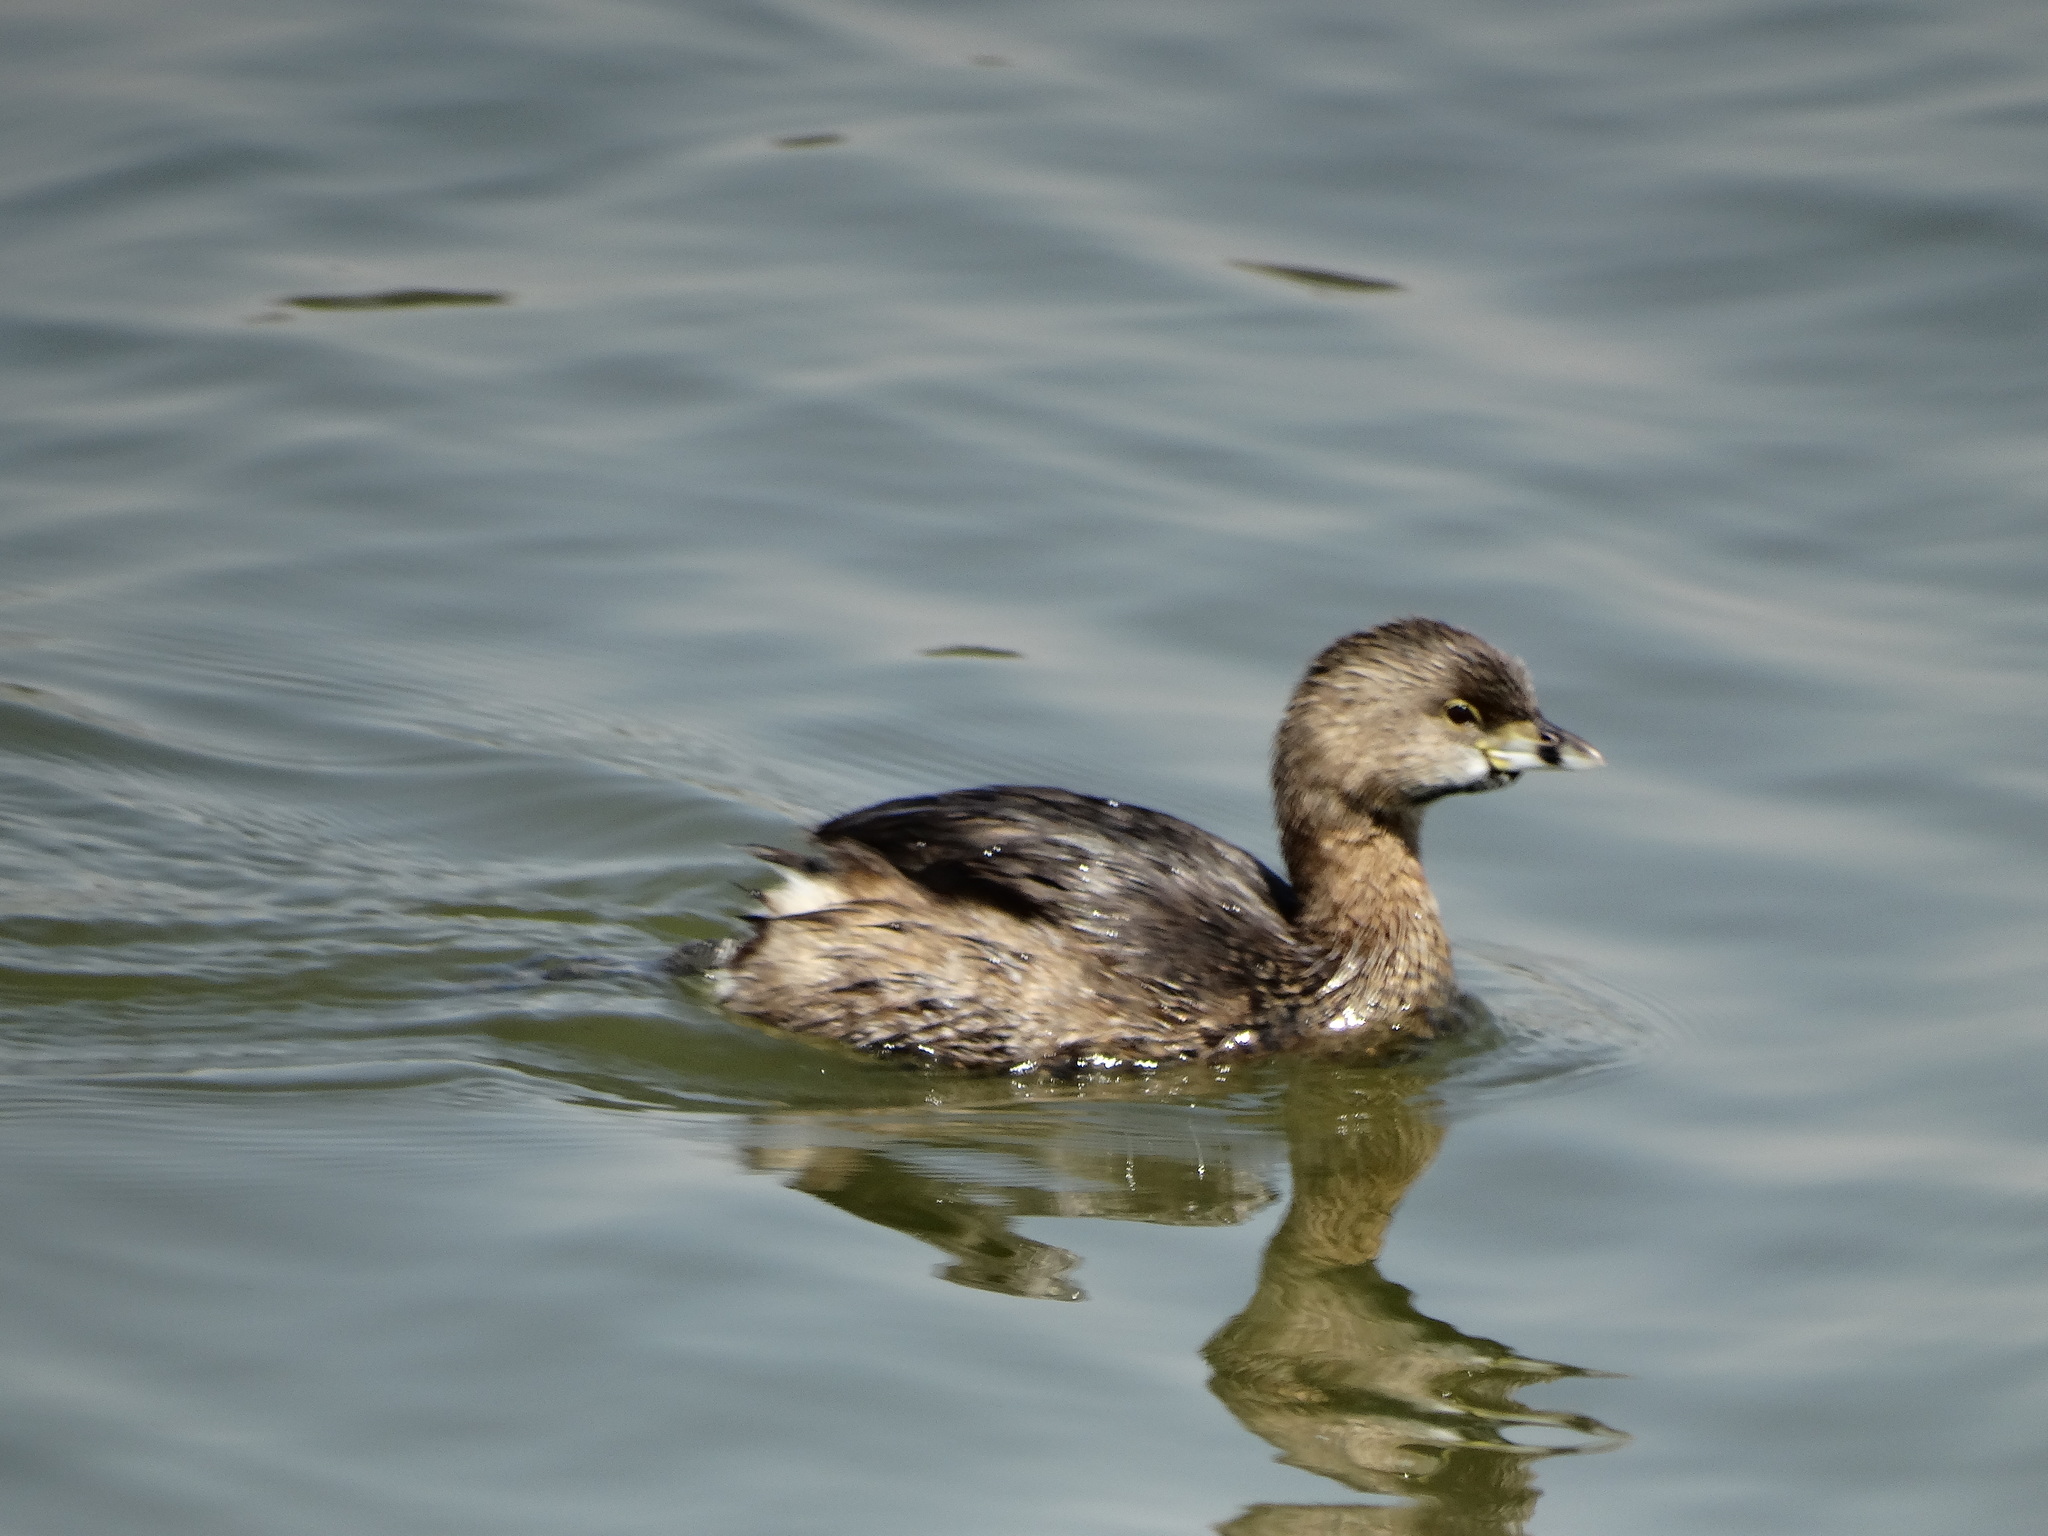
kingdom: Animalia
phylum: Chordata
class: Aves
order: Podicipediformes
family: Podicipedidae
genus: Podilymbus
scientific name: Podilymbus podiceps
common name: Pied-billed grebe
